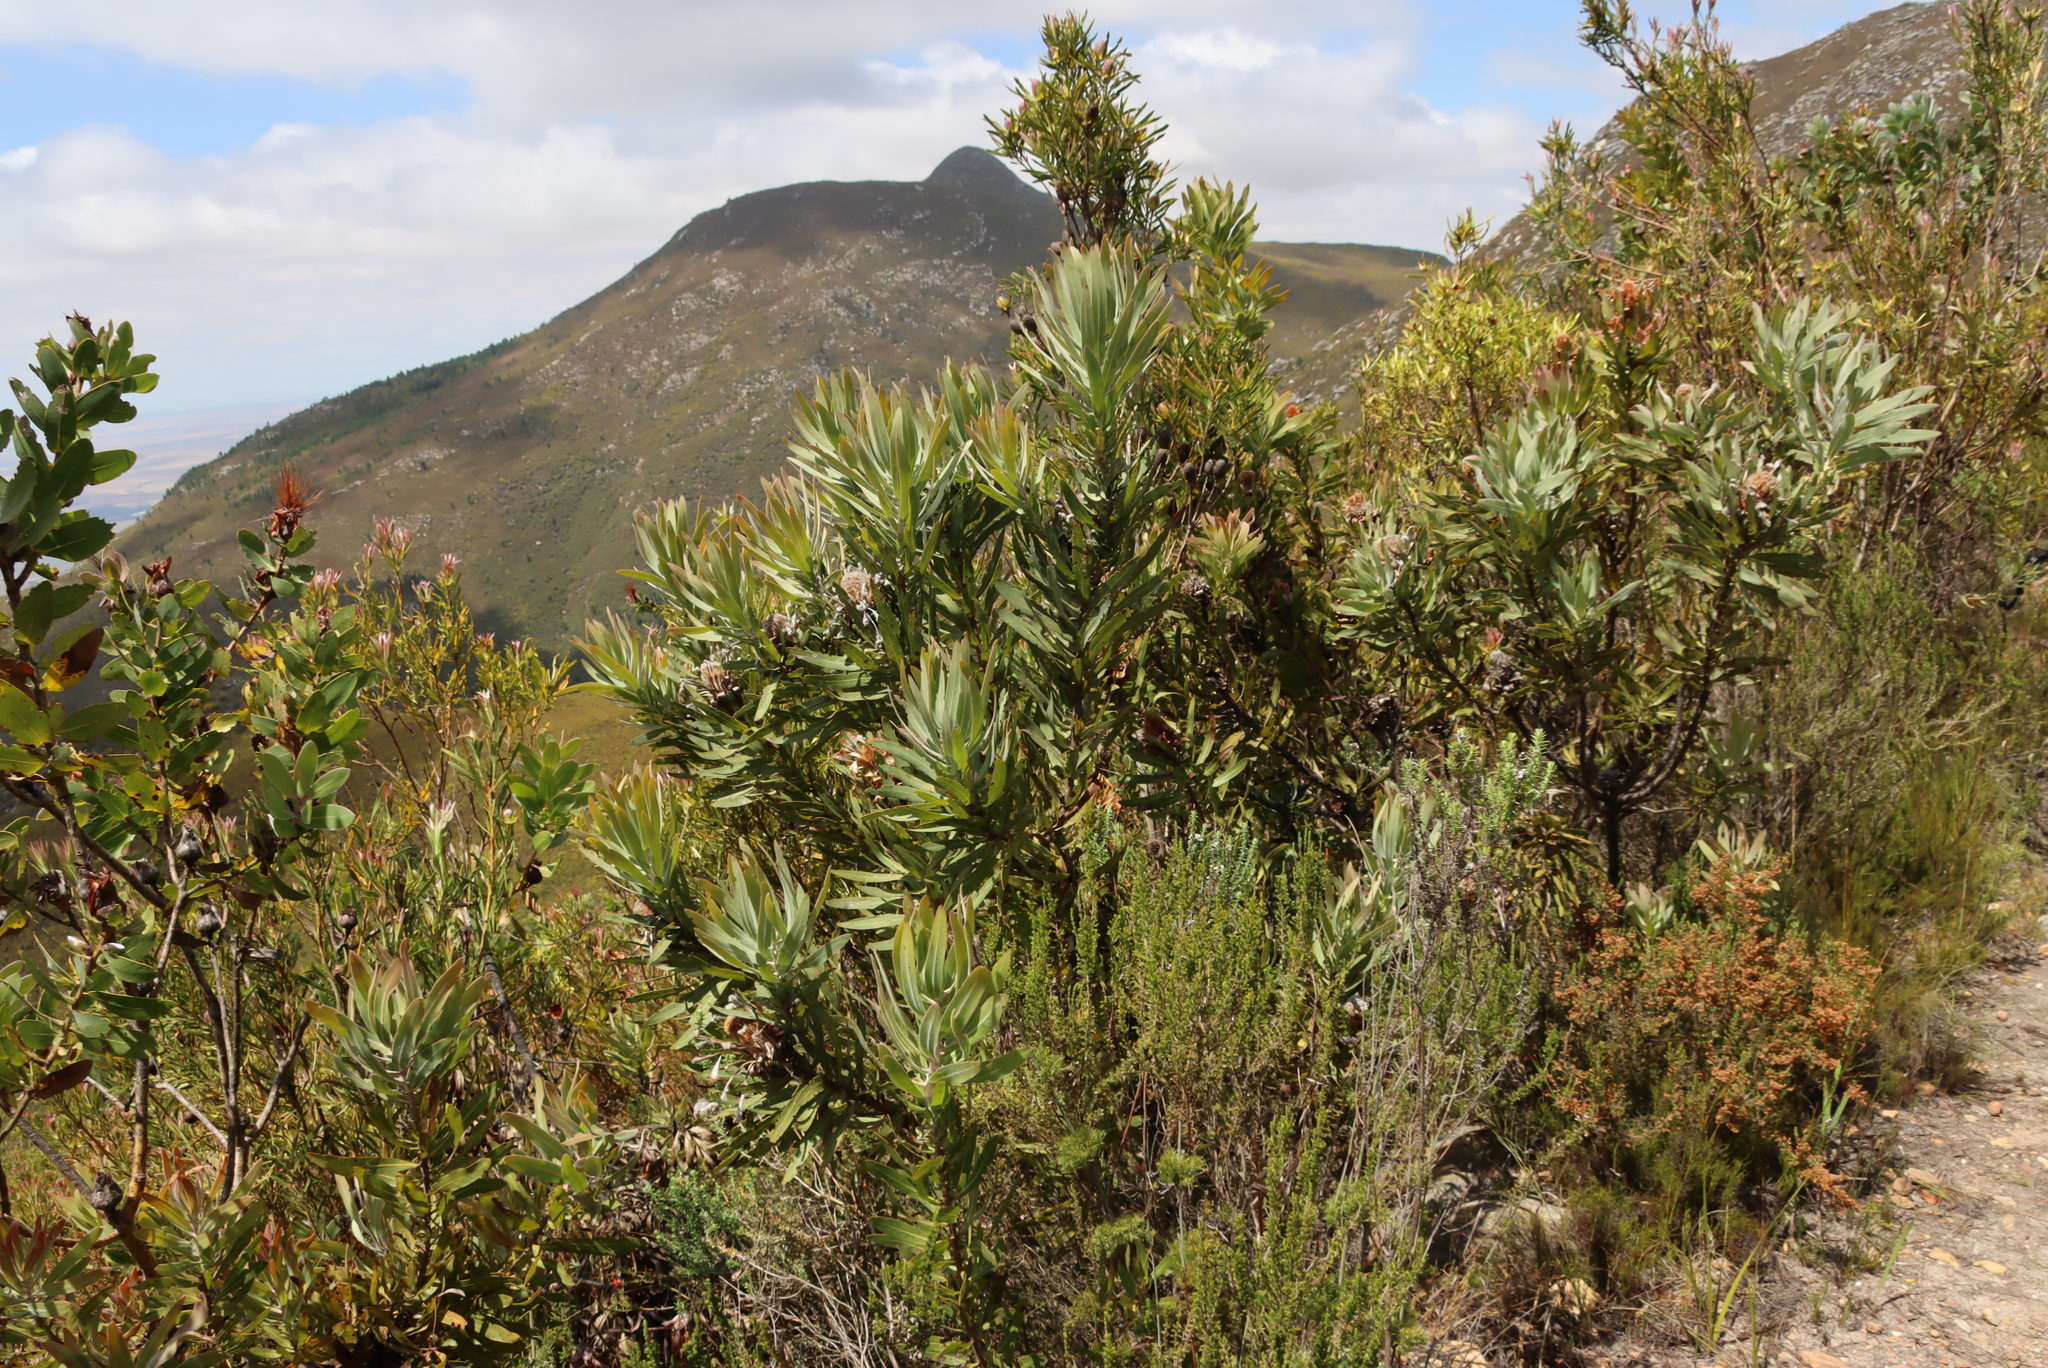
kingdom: Plantae
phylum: Tracheophyta
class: Magnoliopsida
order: Proteales
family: Proteaceae
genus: Protea
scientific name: Protea neriifolia
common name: Blue sugarbush
